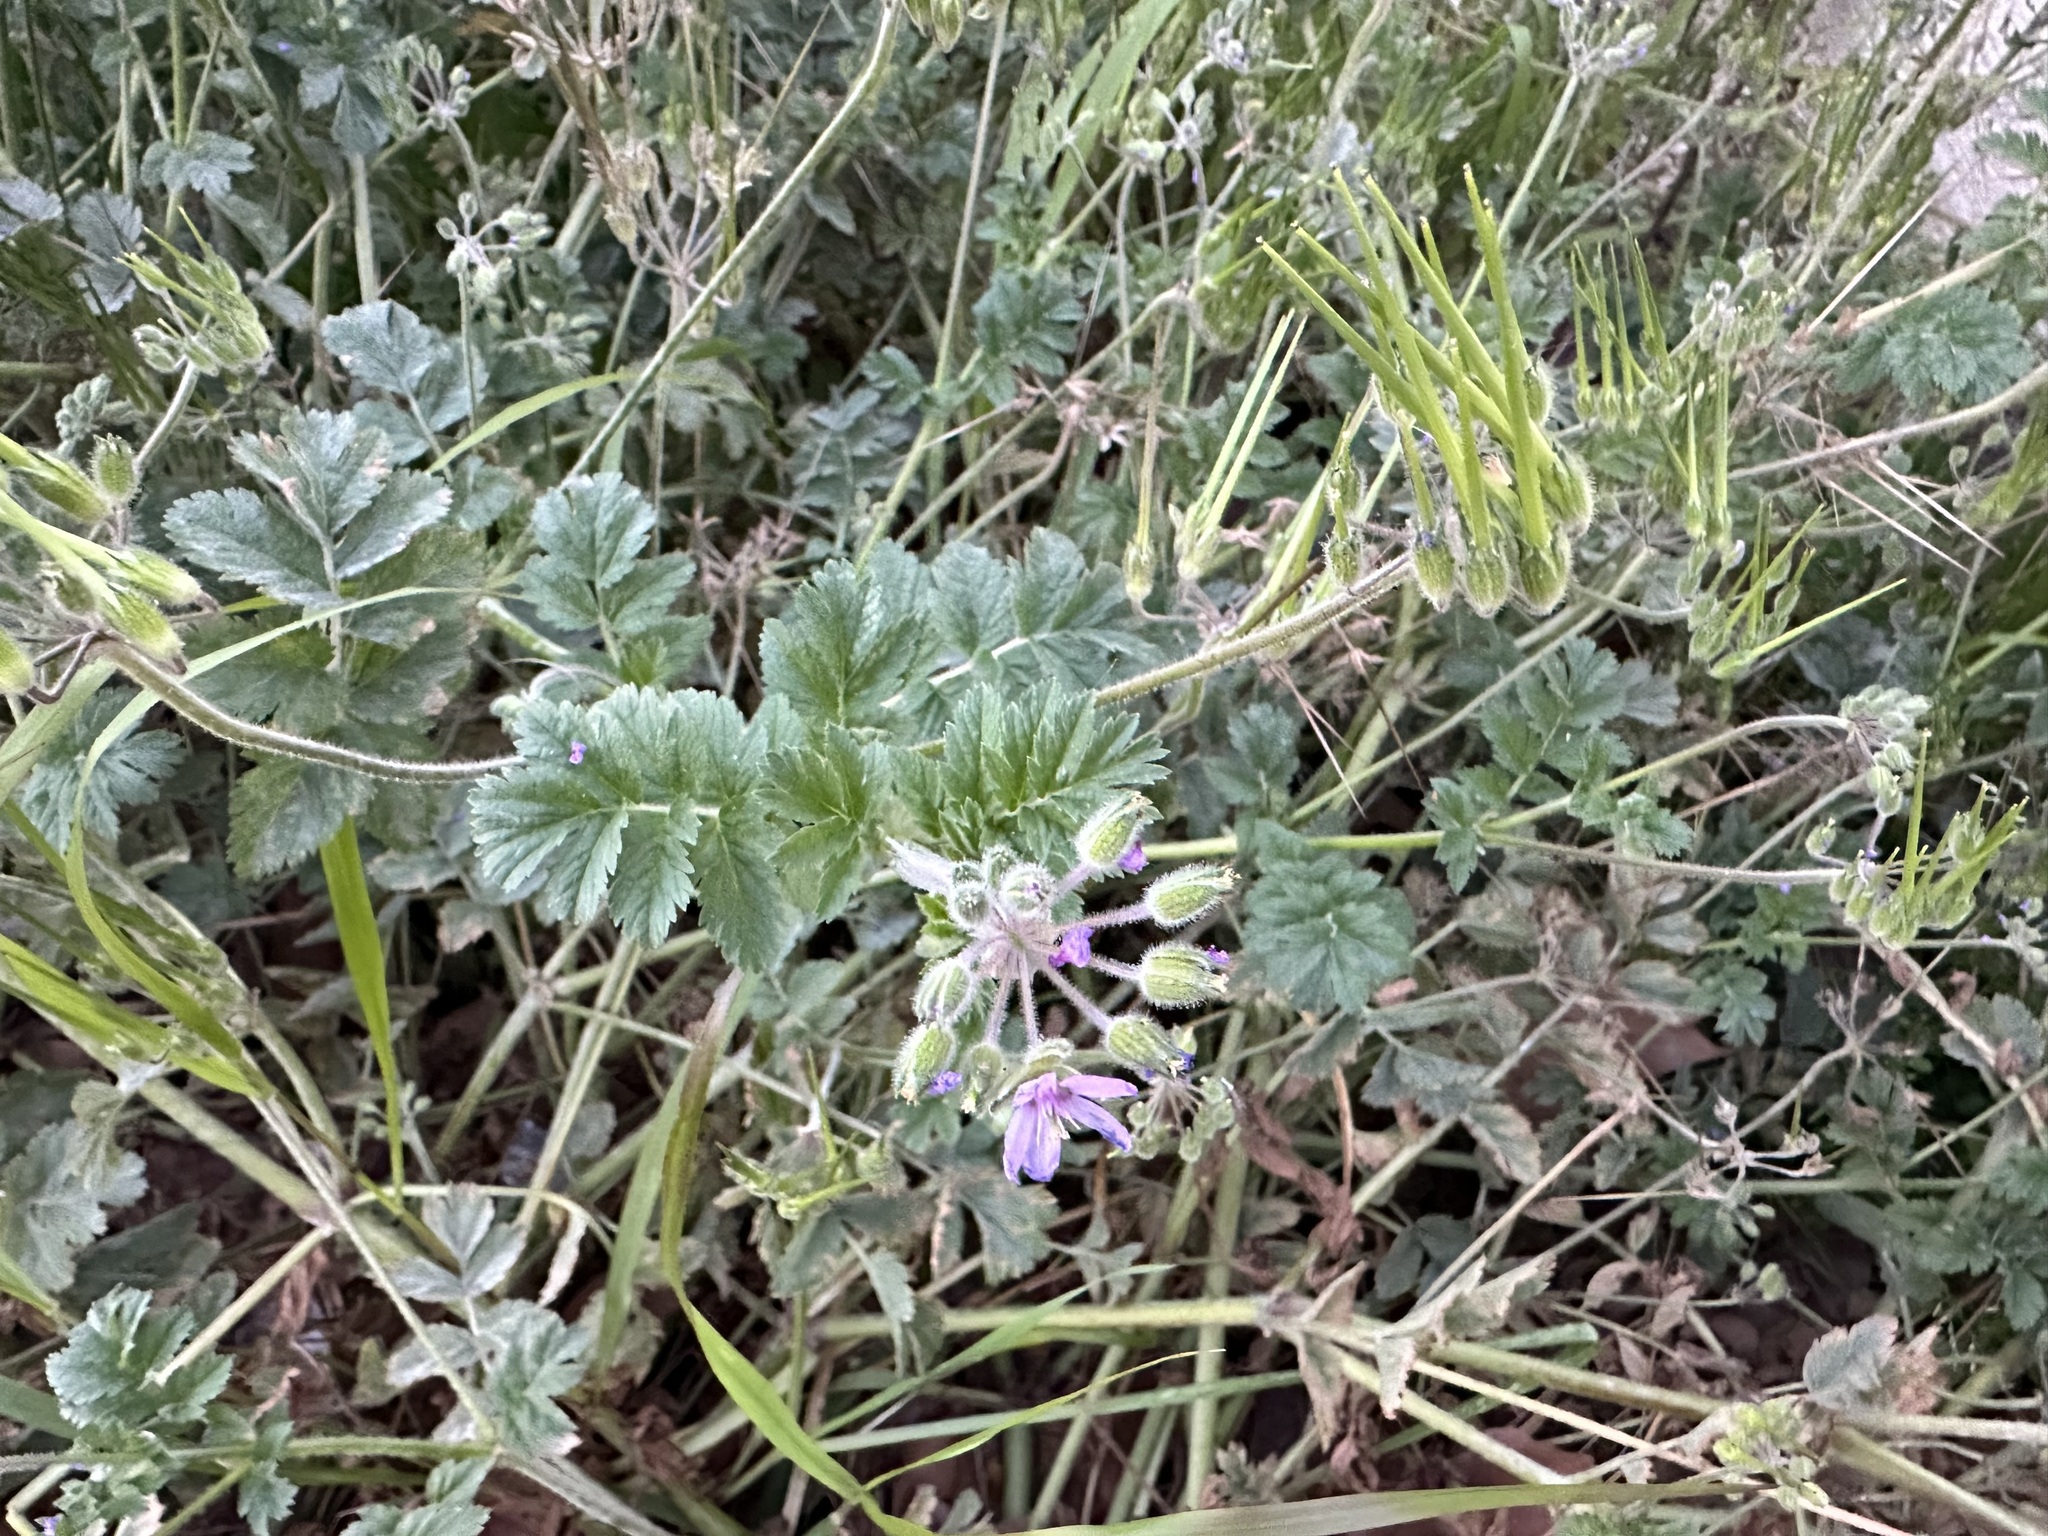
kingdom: Plantae
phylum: Tracheophyta
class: Magnoliopsida
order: Geraniales
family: Geraniaceae
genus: Erodium
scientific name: Erodium moschatum
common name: Musk stork's-bill
